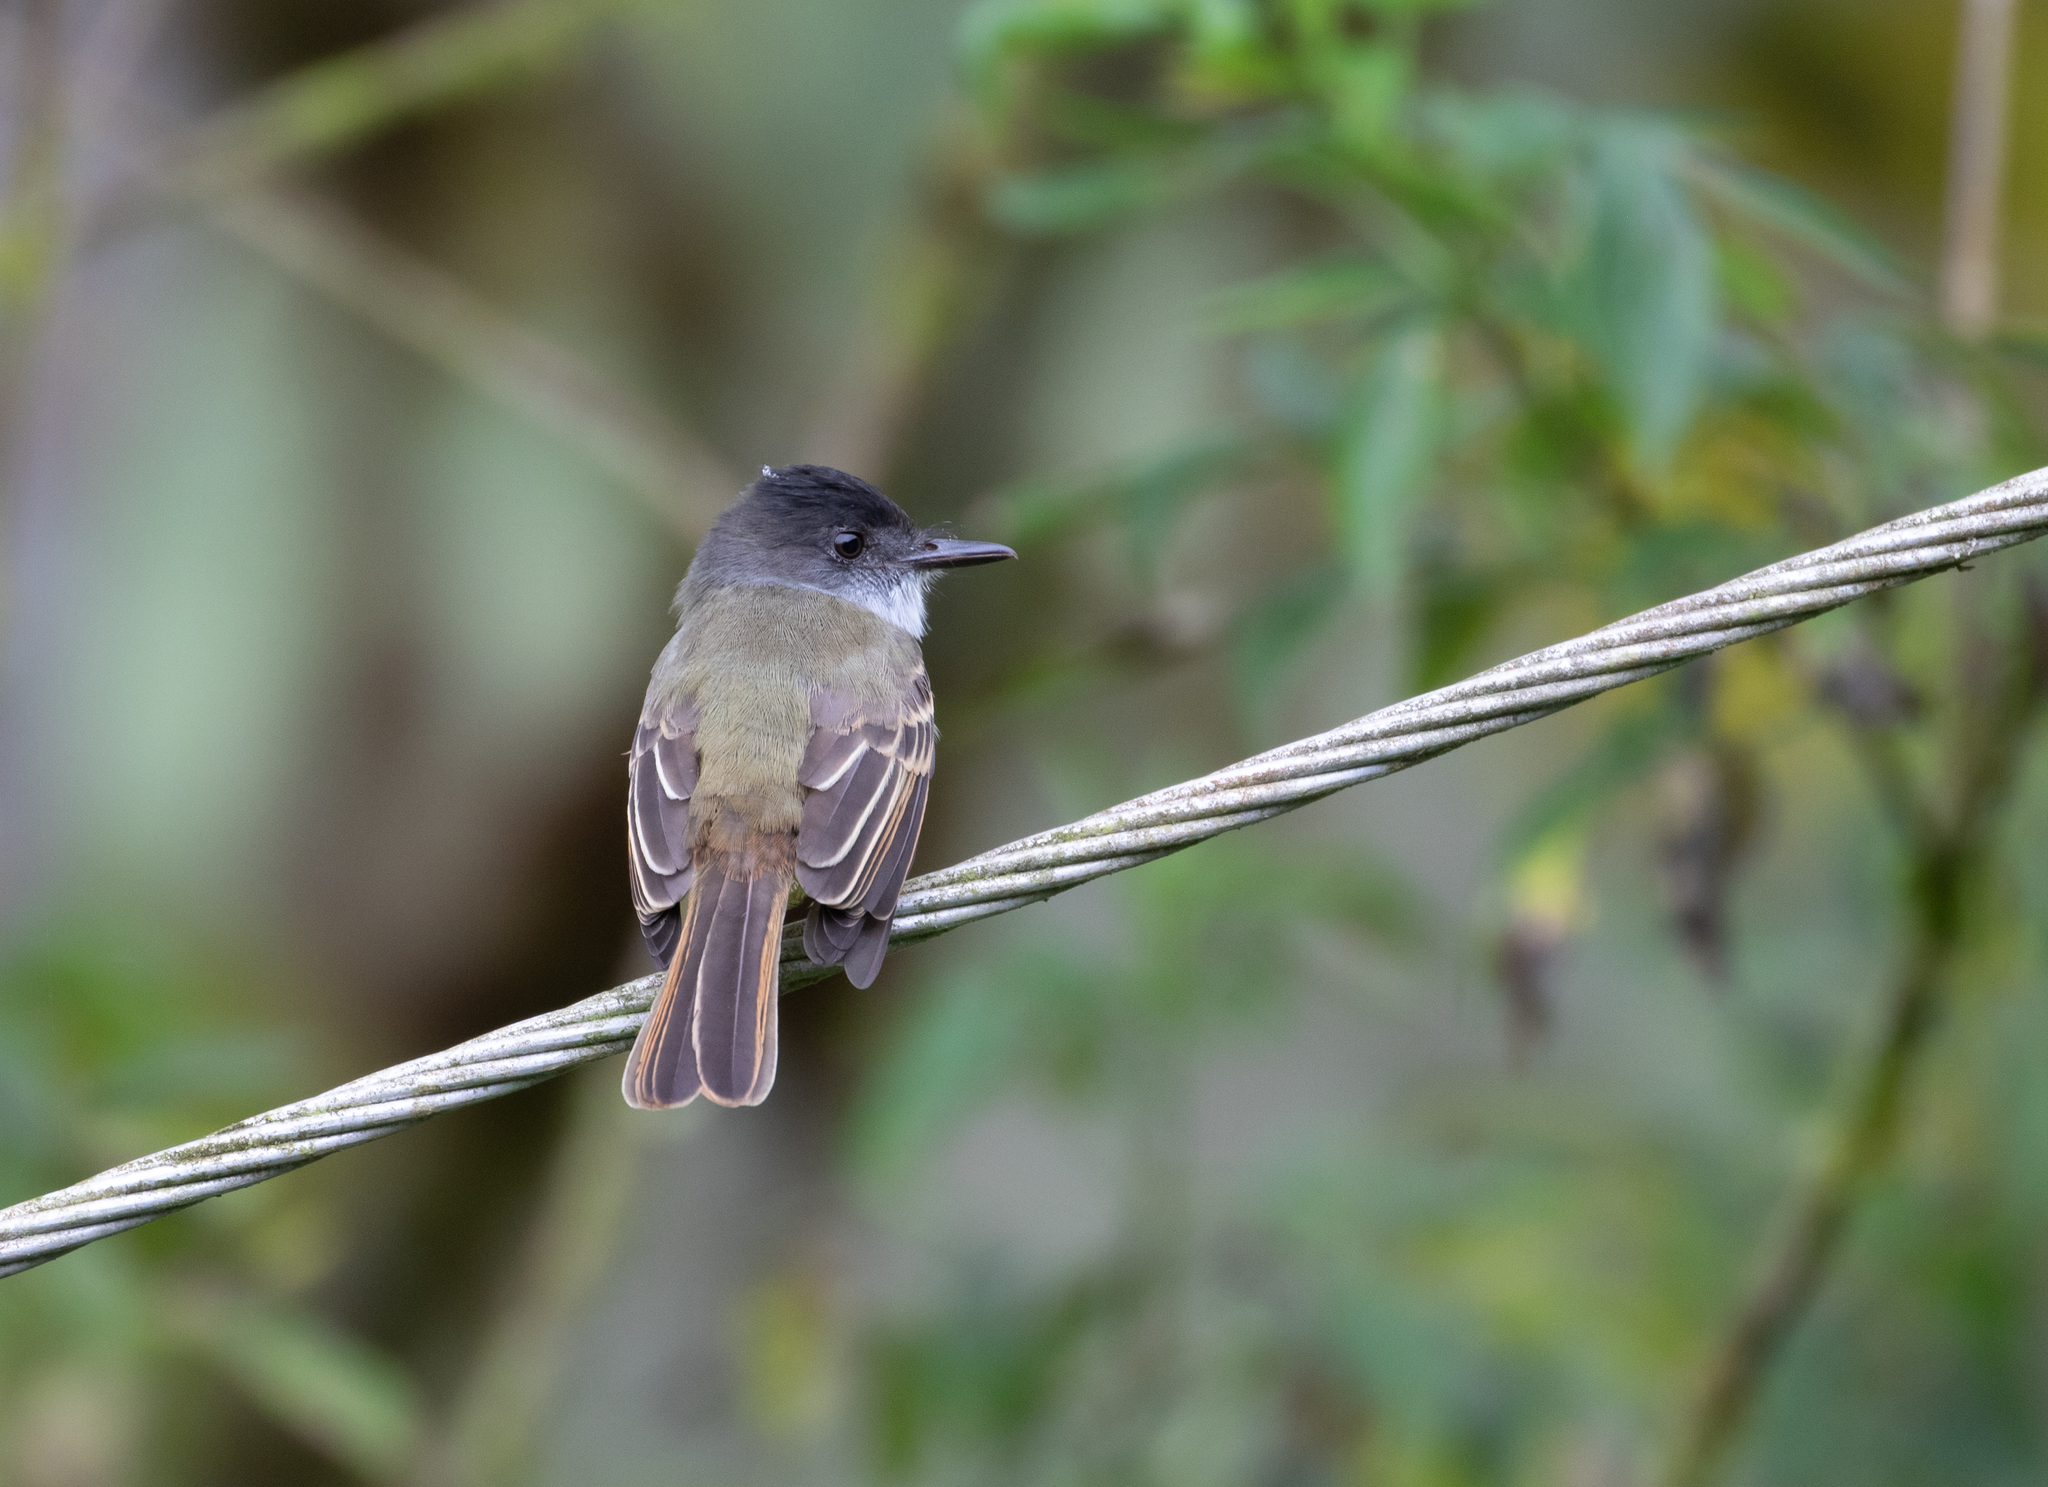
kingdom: Animalia
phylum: Chordata
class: Aves
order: Passeriformes
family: Tyrannidae
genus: Myiarchus
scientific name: Myiarchus tuberculifer
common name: Dusky-capped flycatcher
